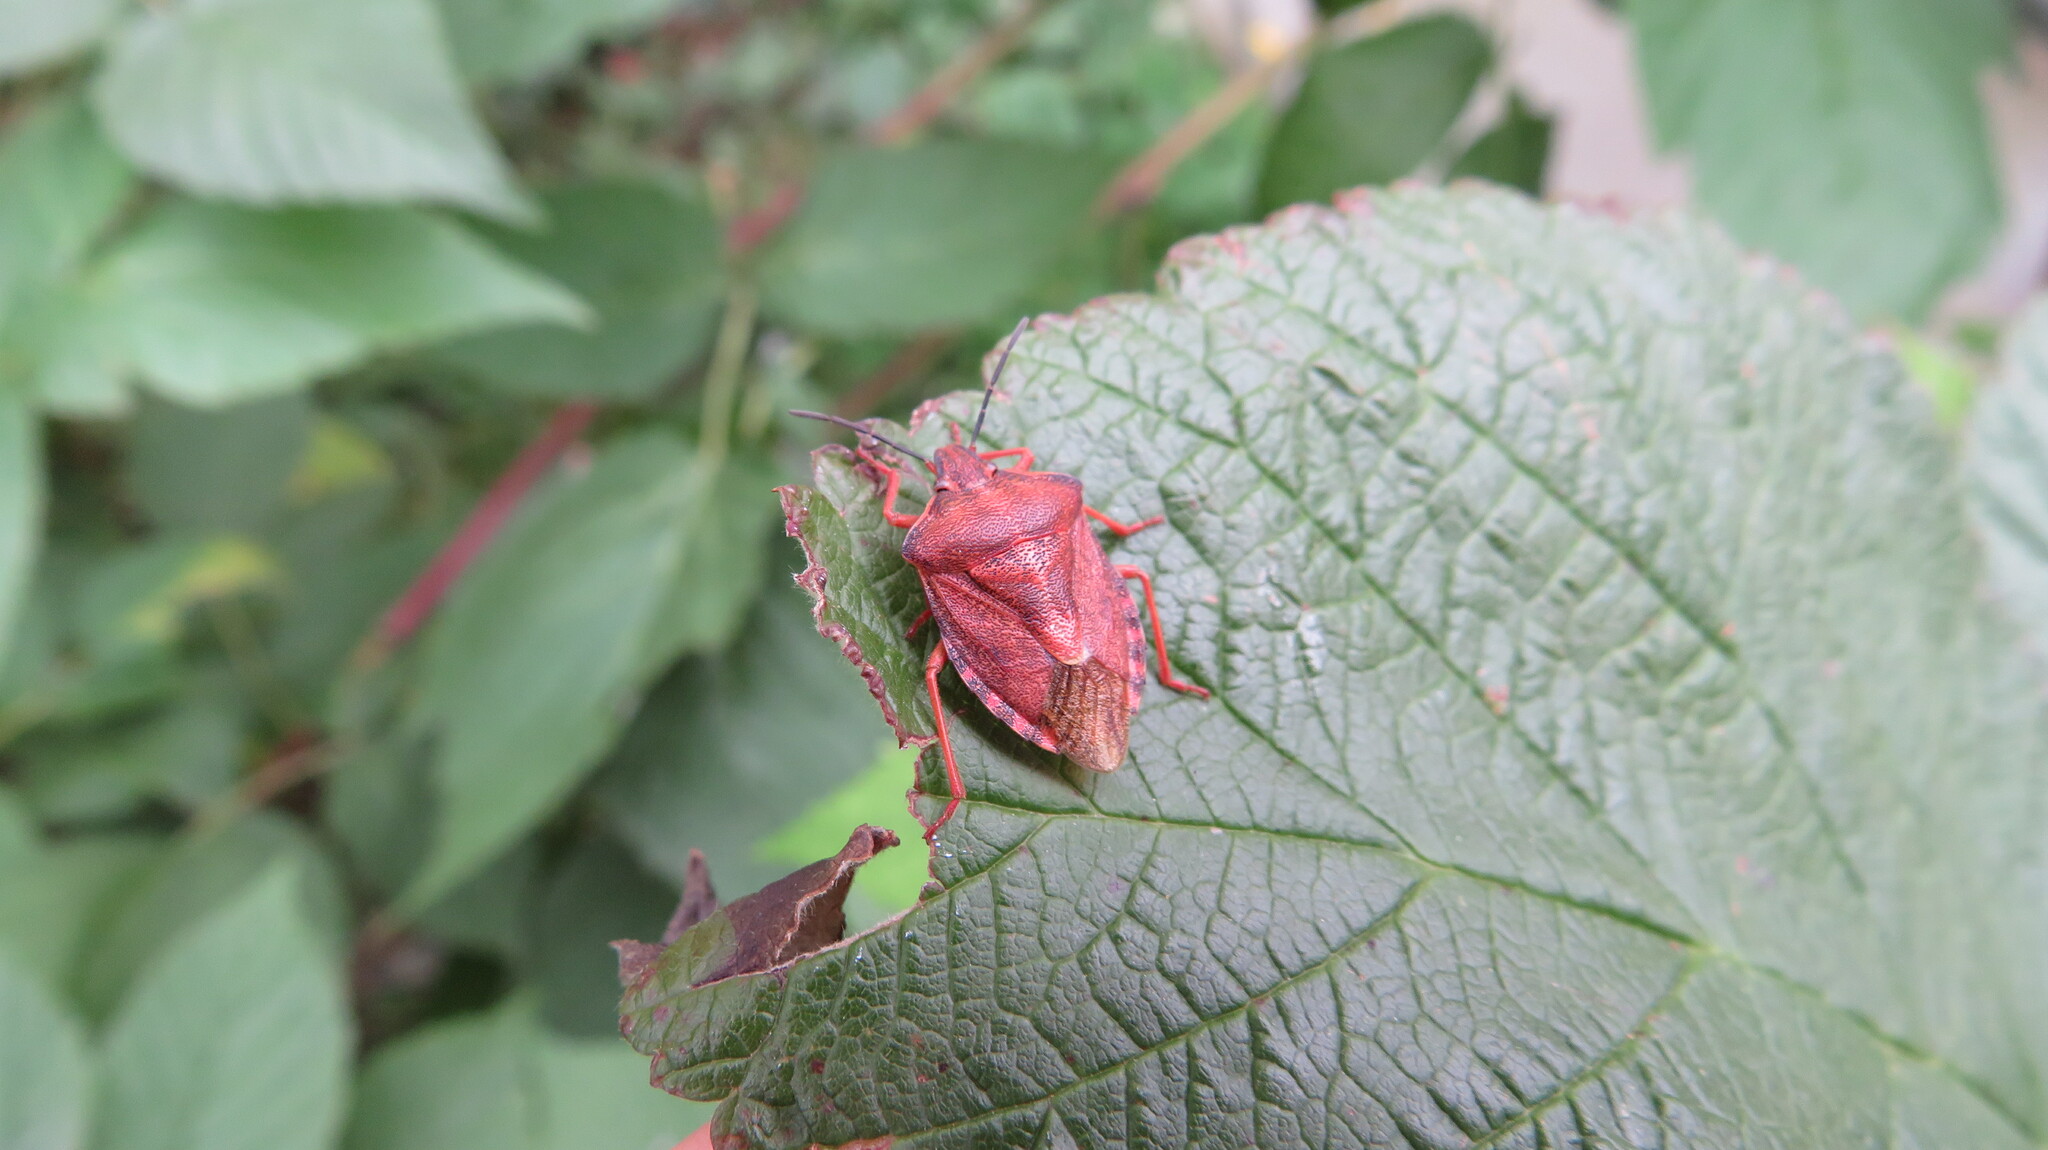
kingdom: Animalia
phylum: Arthropoda
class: Insecta
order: Hemiptera
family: Pentatomidae
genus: Carpocoris
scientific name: Carpocoris purpureipennis
